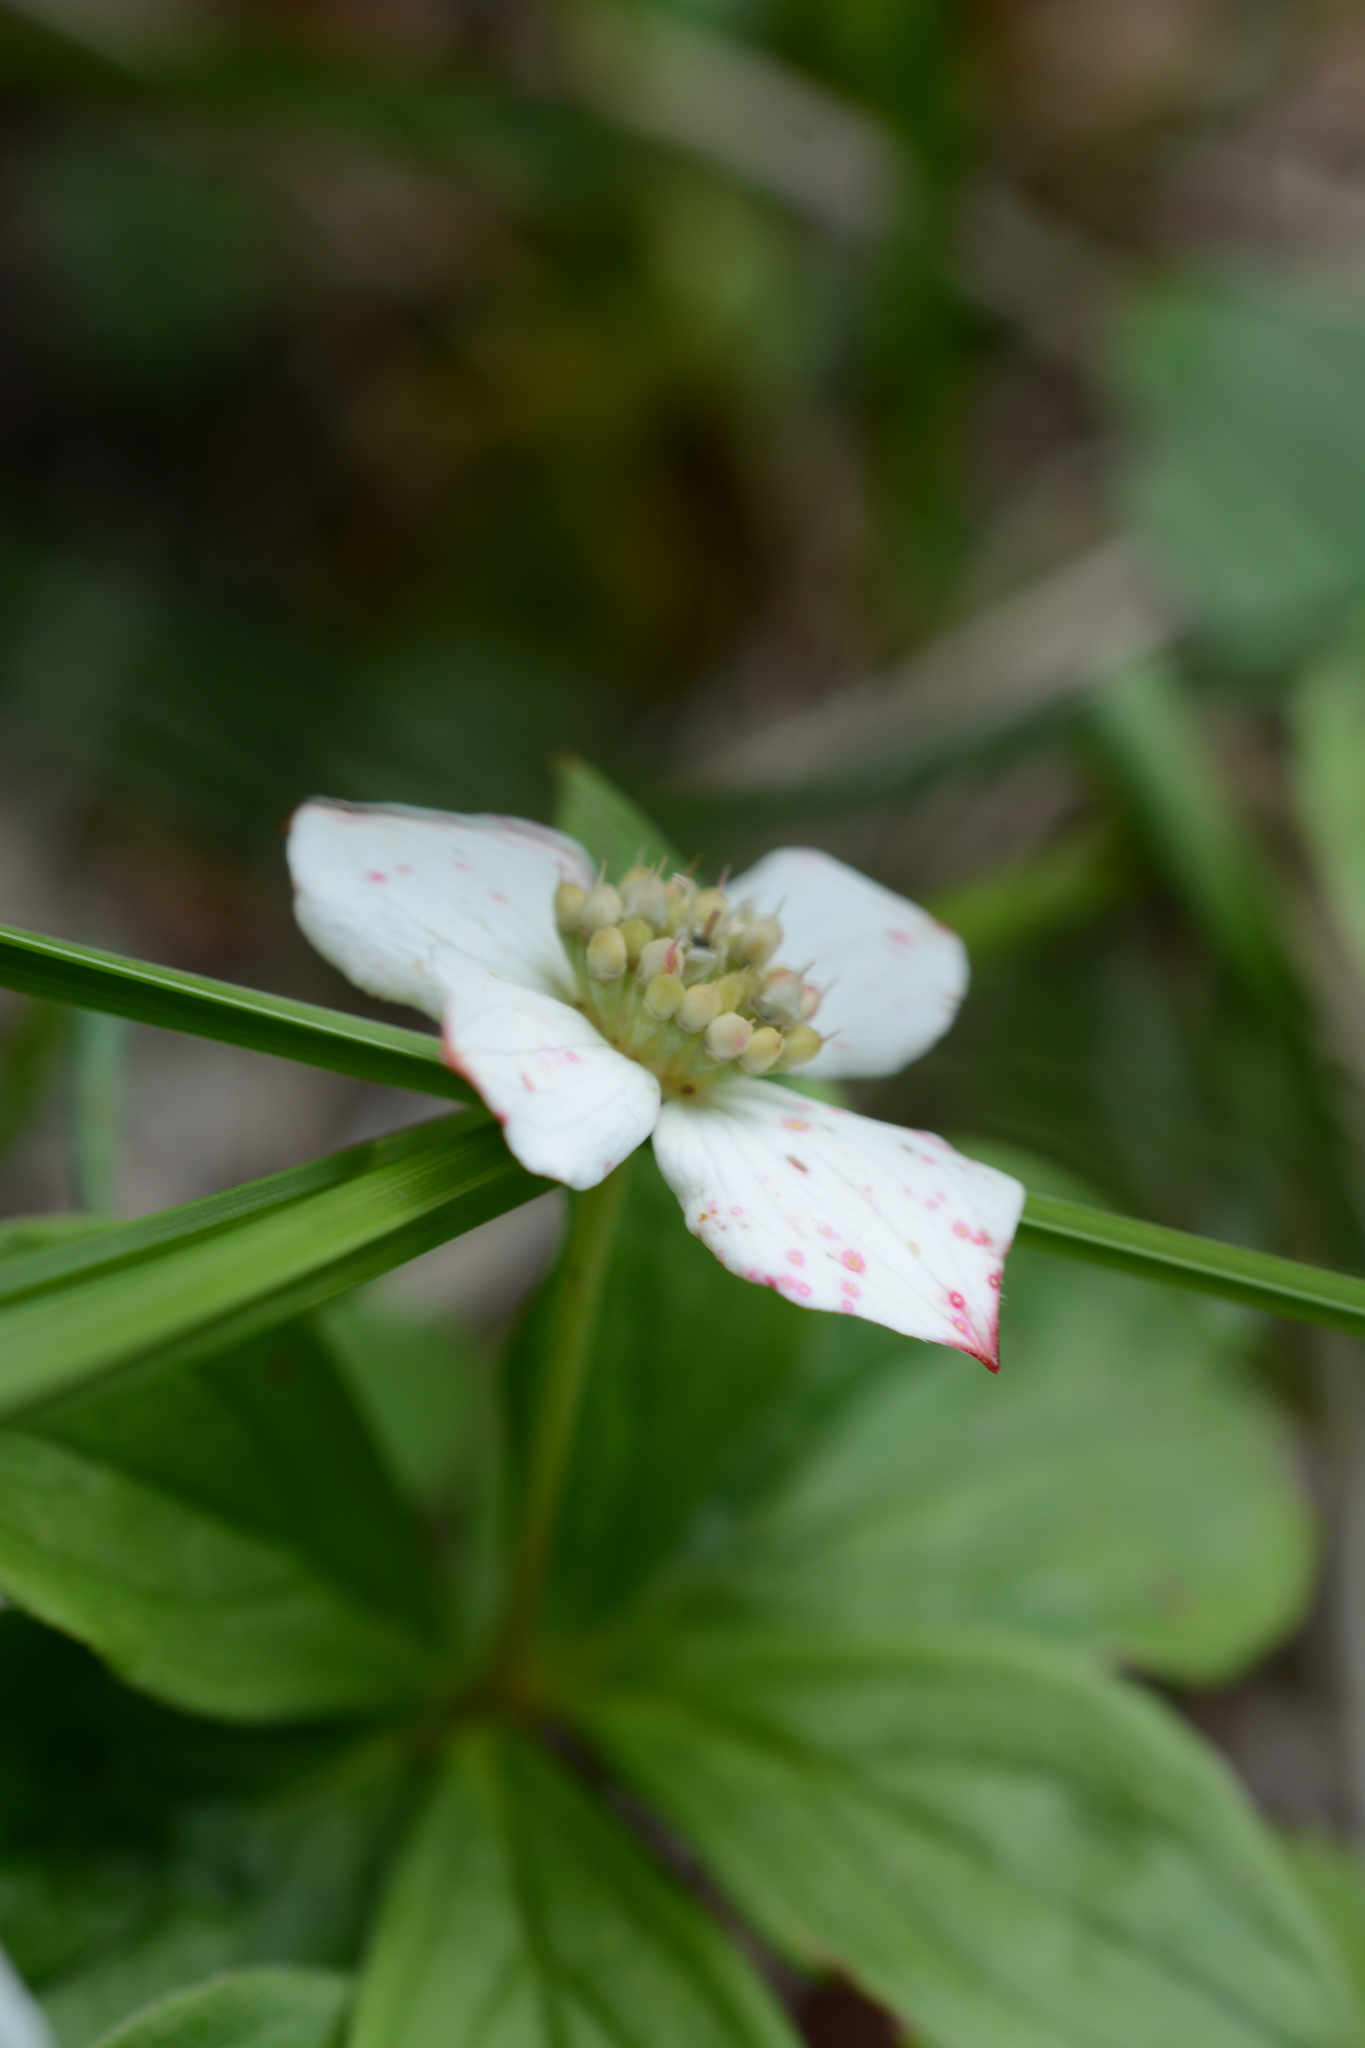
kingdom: Plantae
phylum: Tracheophyta
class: Magnoliopsida
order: Cornales
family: Cornaceae
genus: Cornus
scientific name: Cornus canadensis
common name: Creeping dogwood
